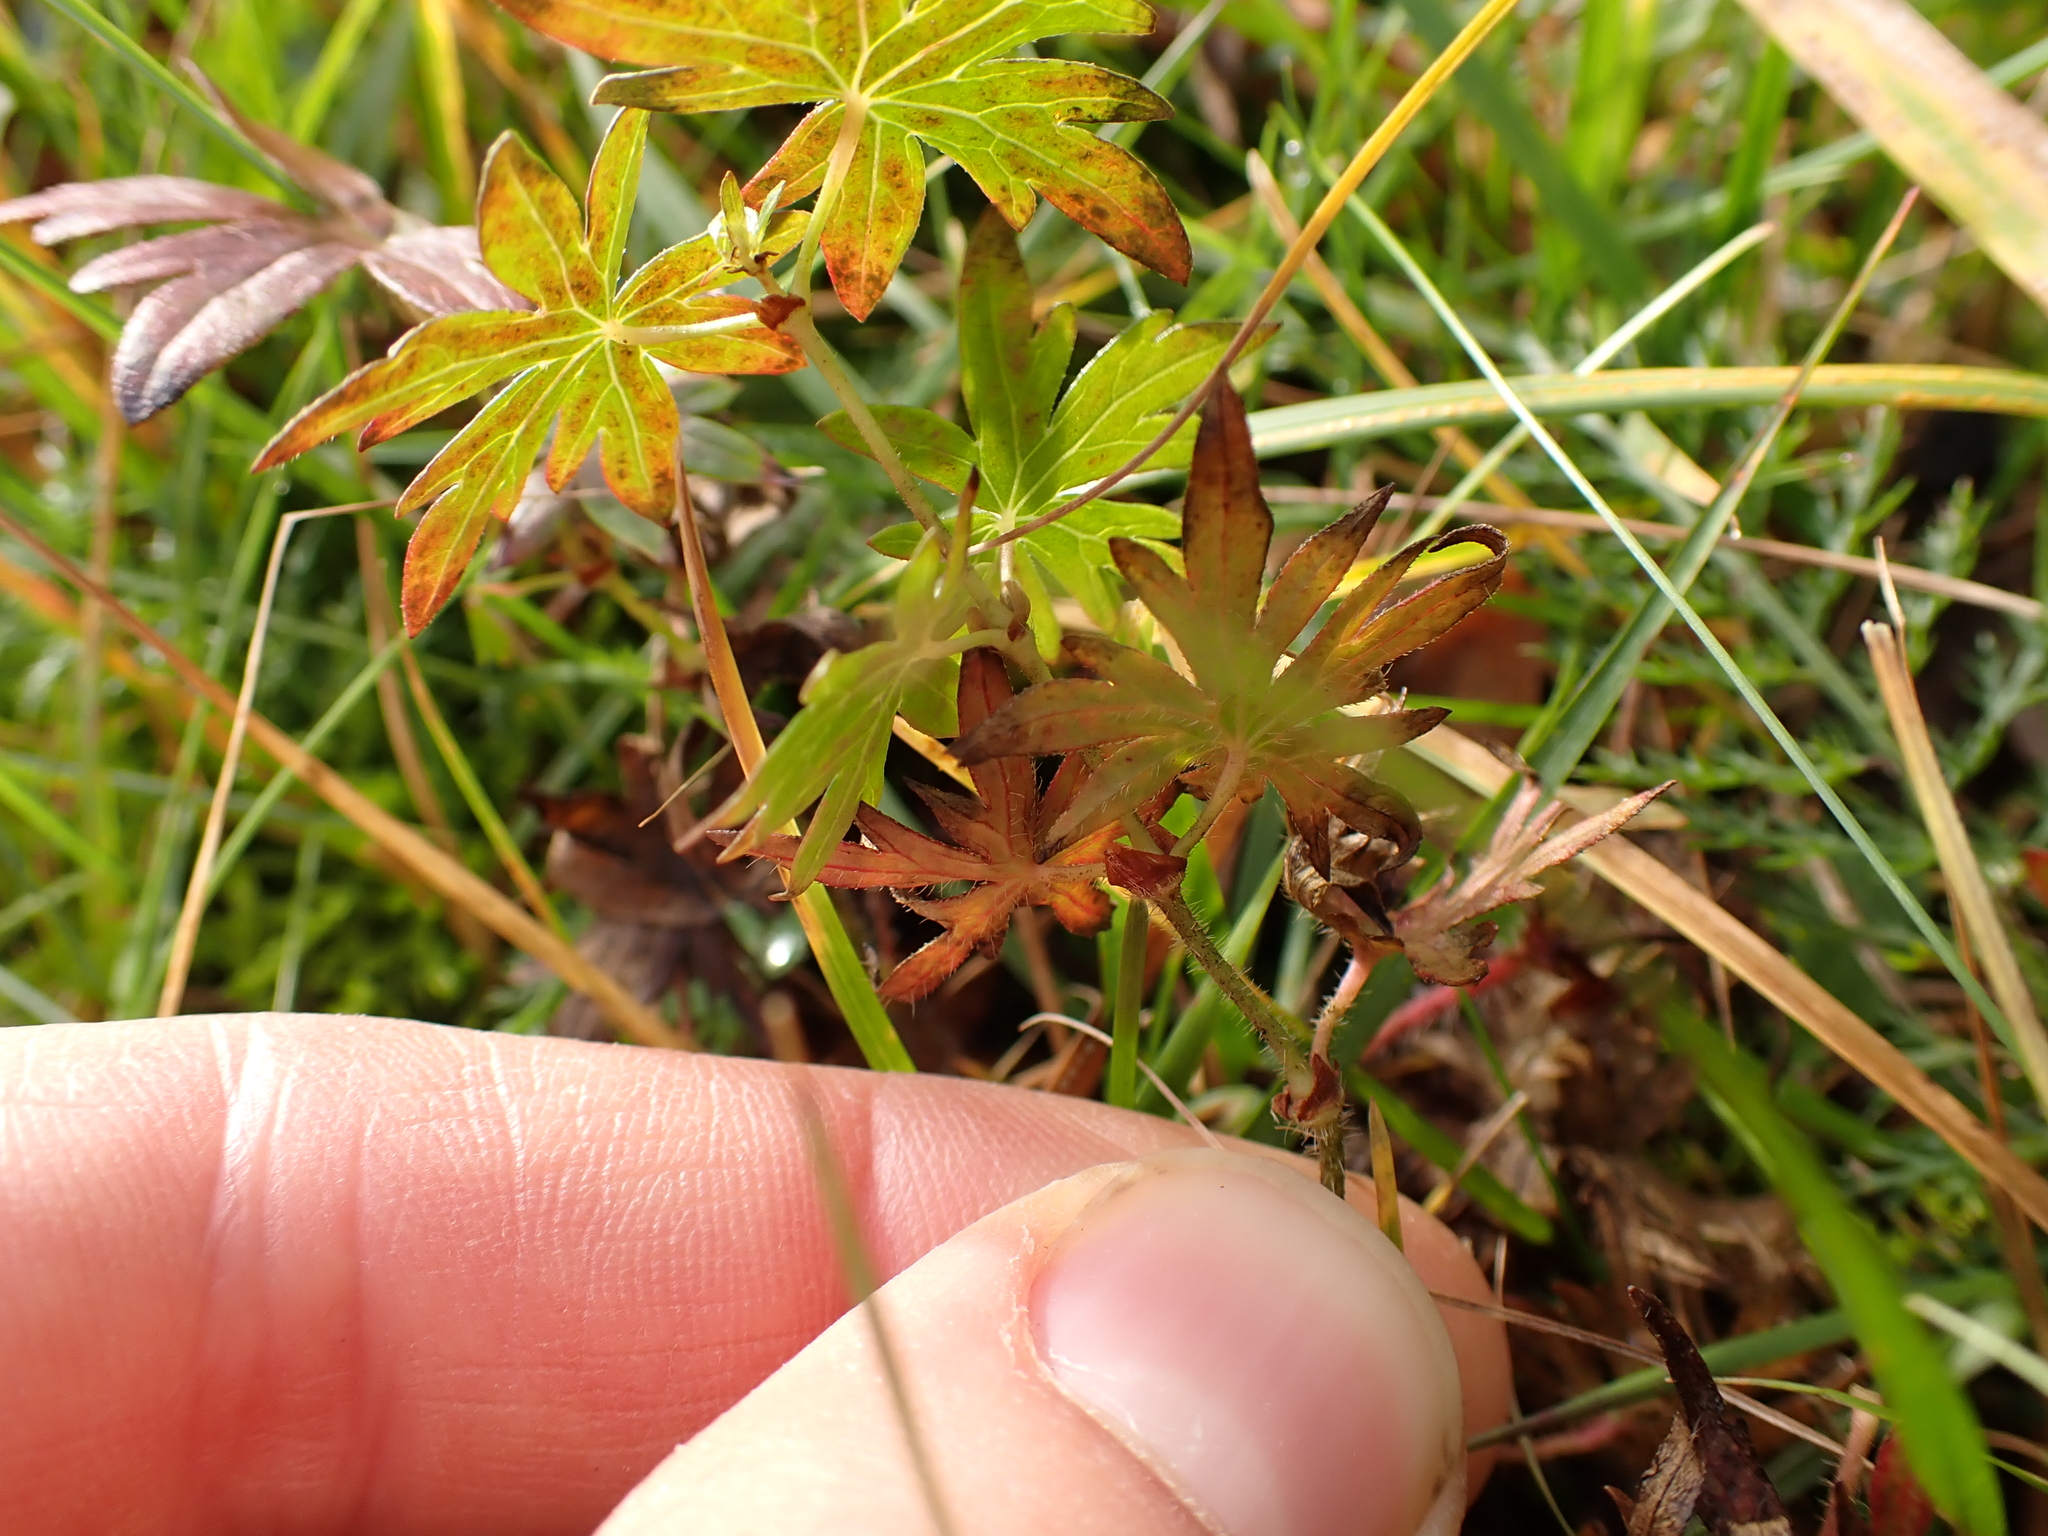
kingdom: Plantae
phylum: Tracheophyta
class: Magnoliopsida
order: Geraniales
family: Geraniaceae
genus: Geranium
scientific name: Geranium sanguineum
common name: Bloody crane's-bill
